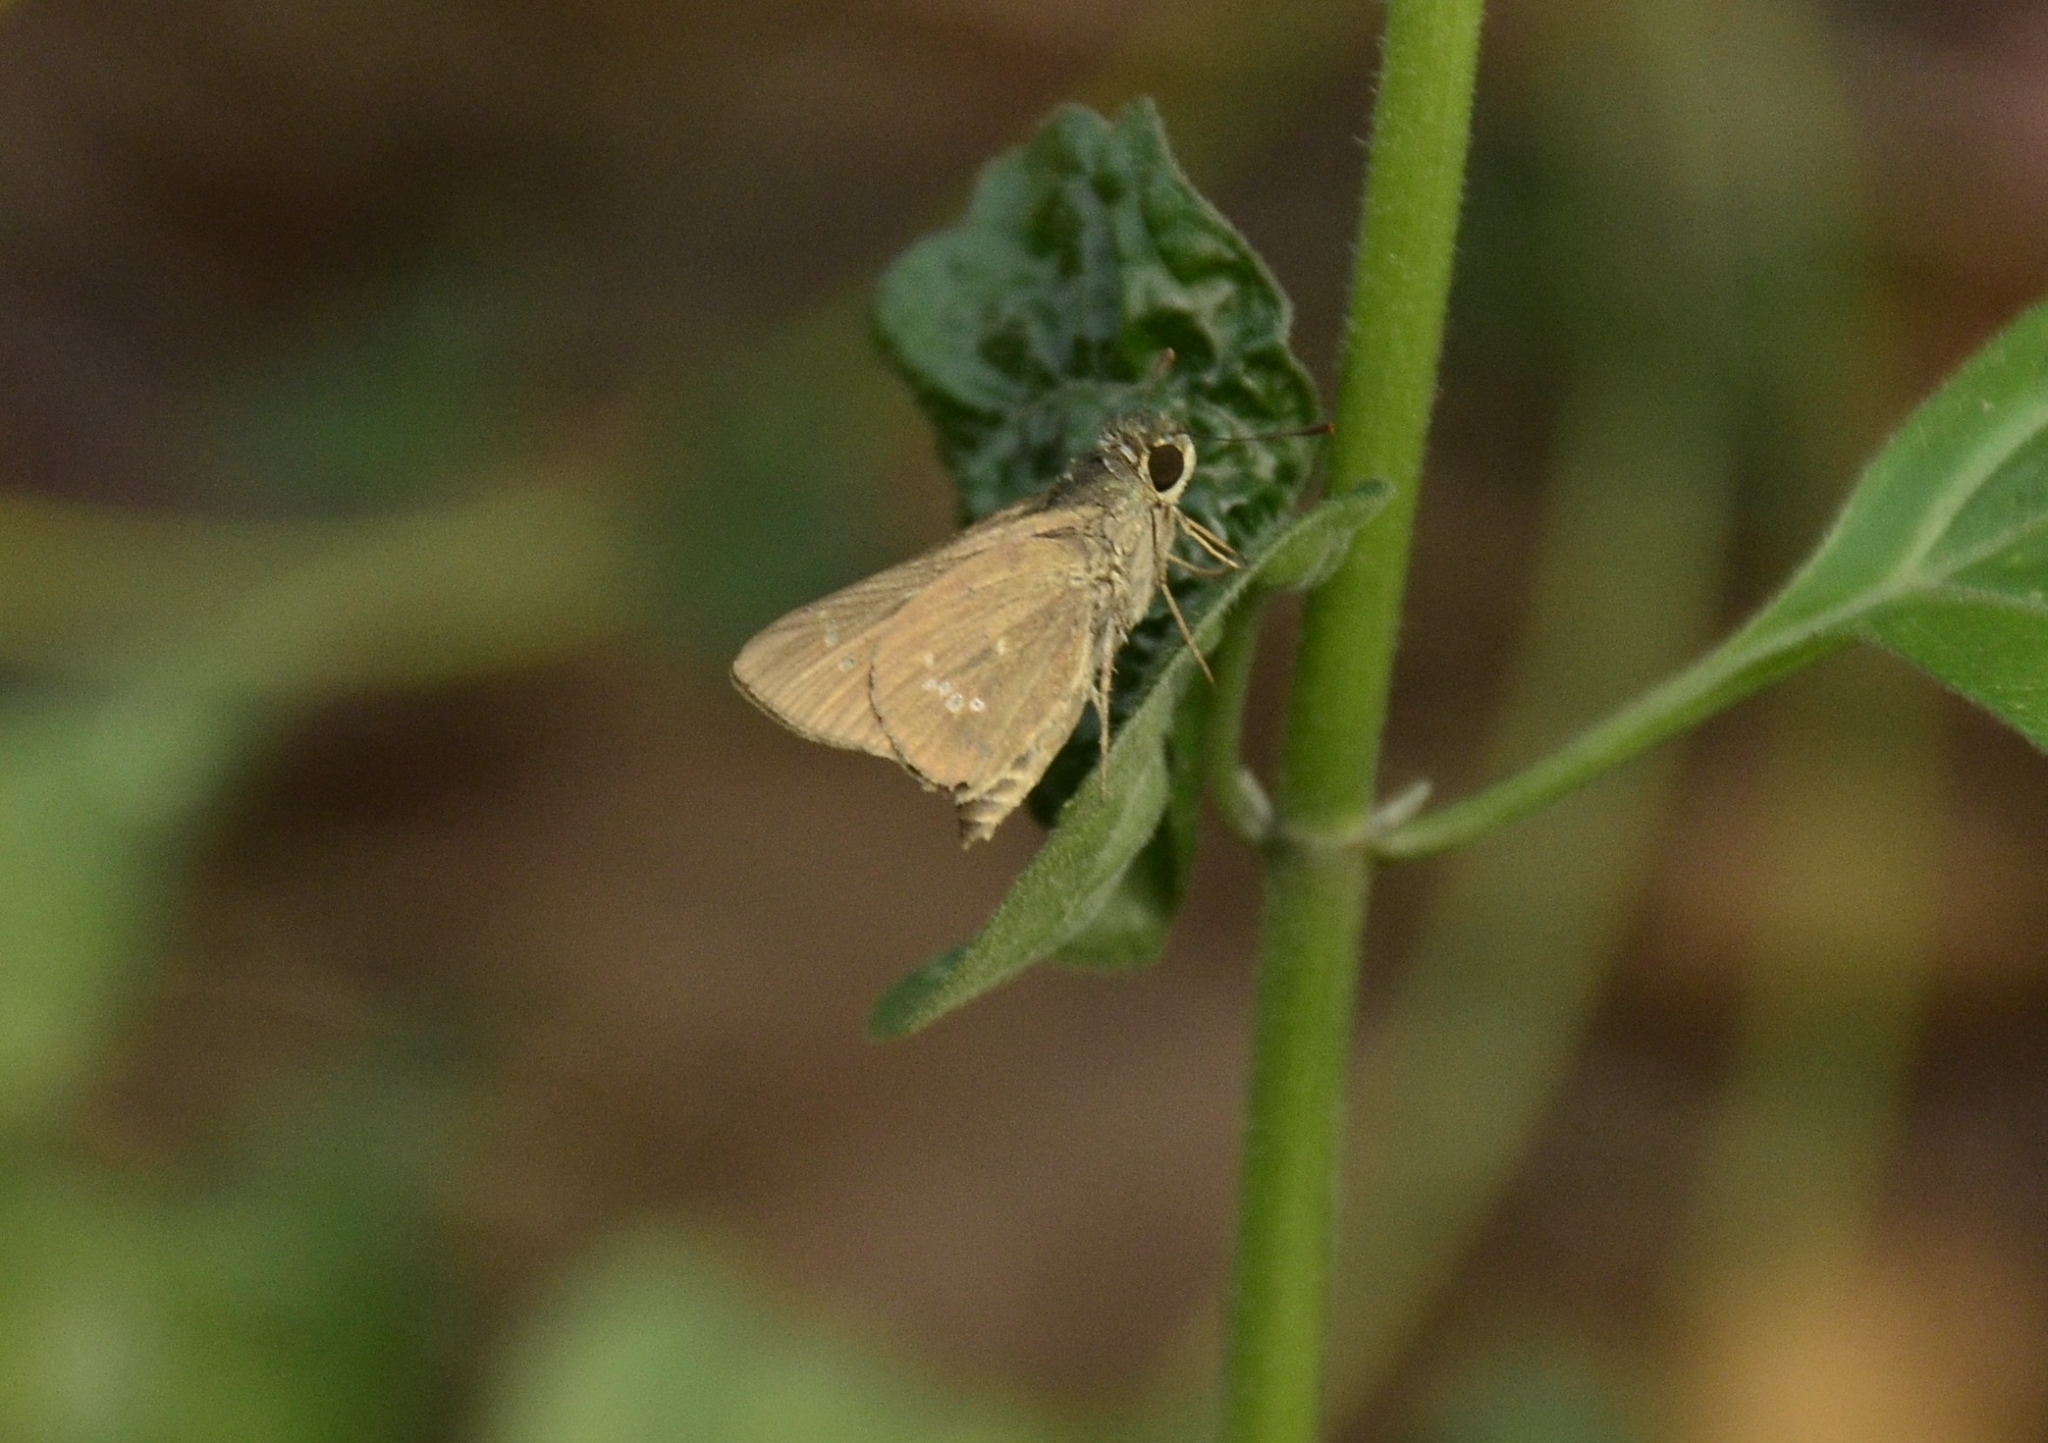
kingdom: Animalia
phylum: Arthropoda
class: Insecta
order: Lepidoptera
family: Hesperiidae
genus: Parnara
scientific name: Parnara naso
